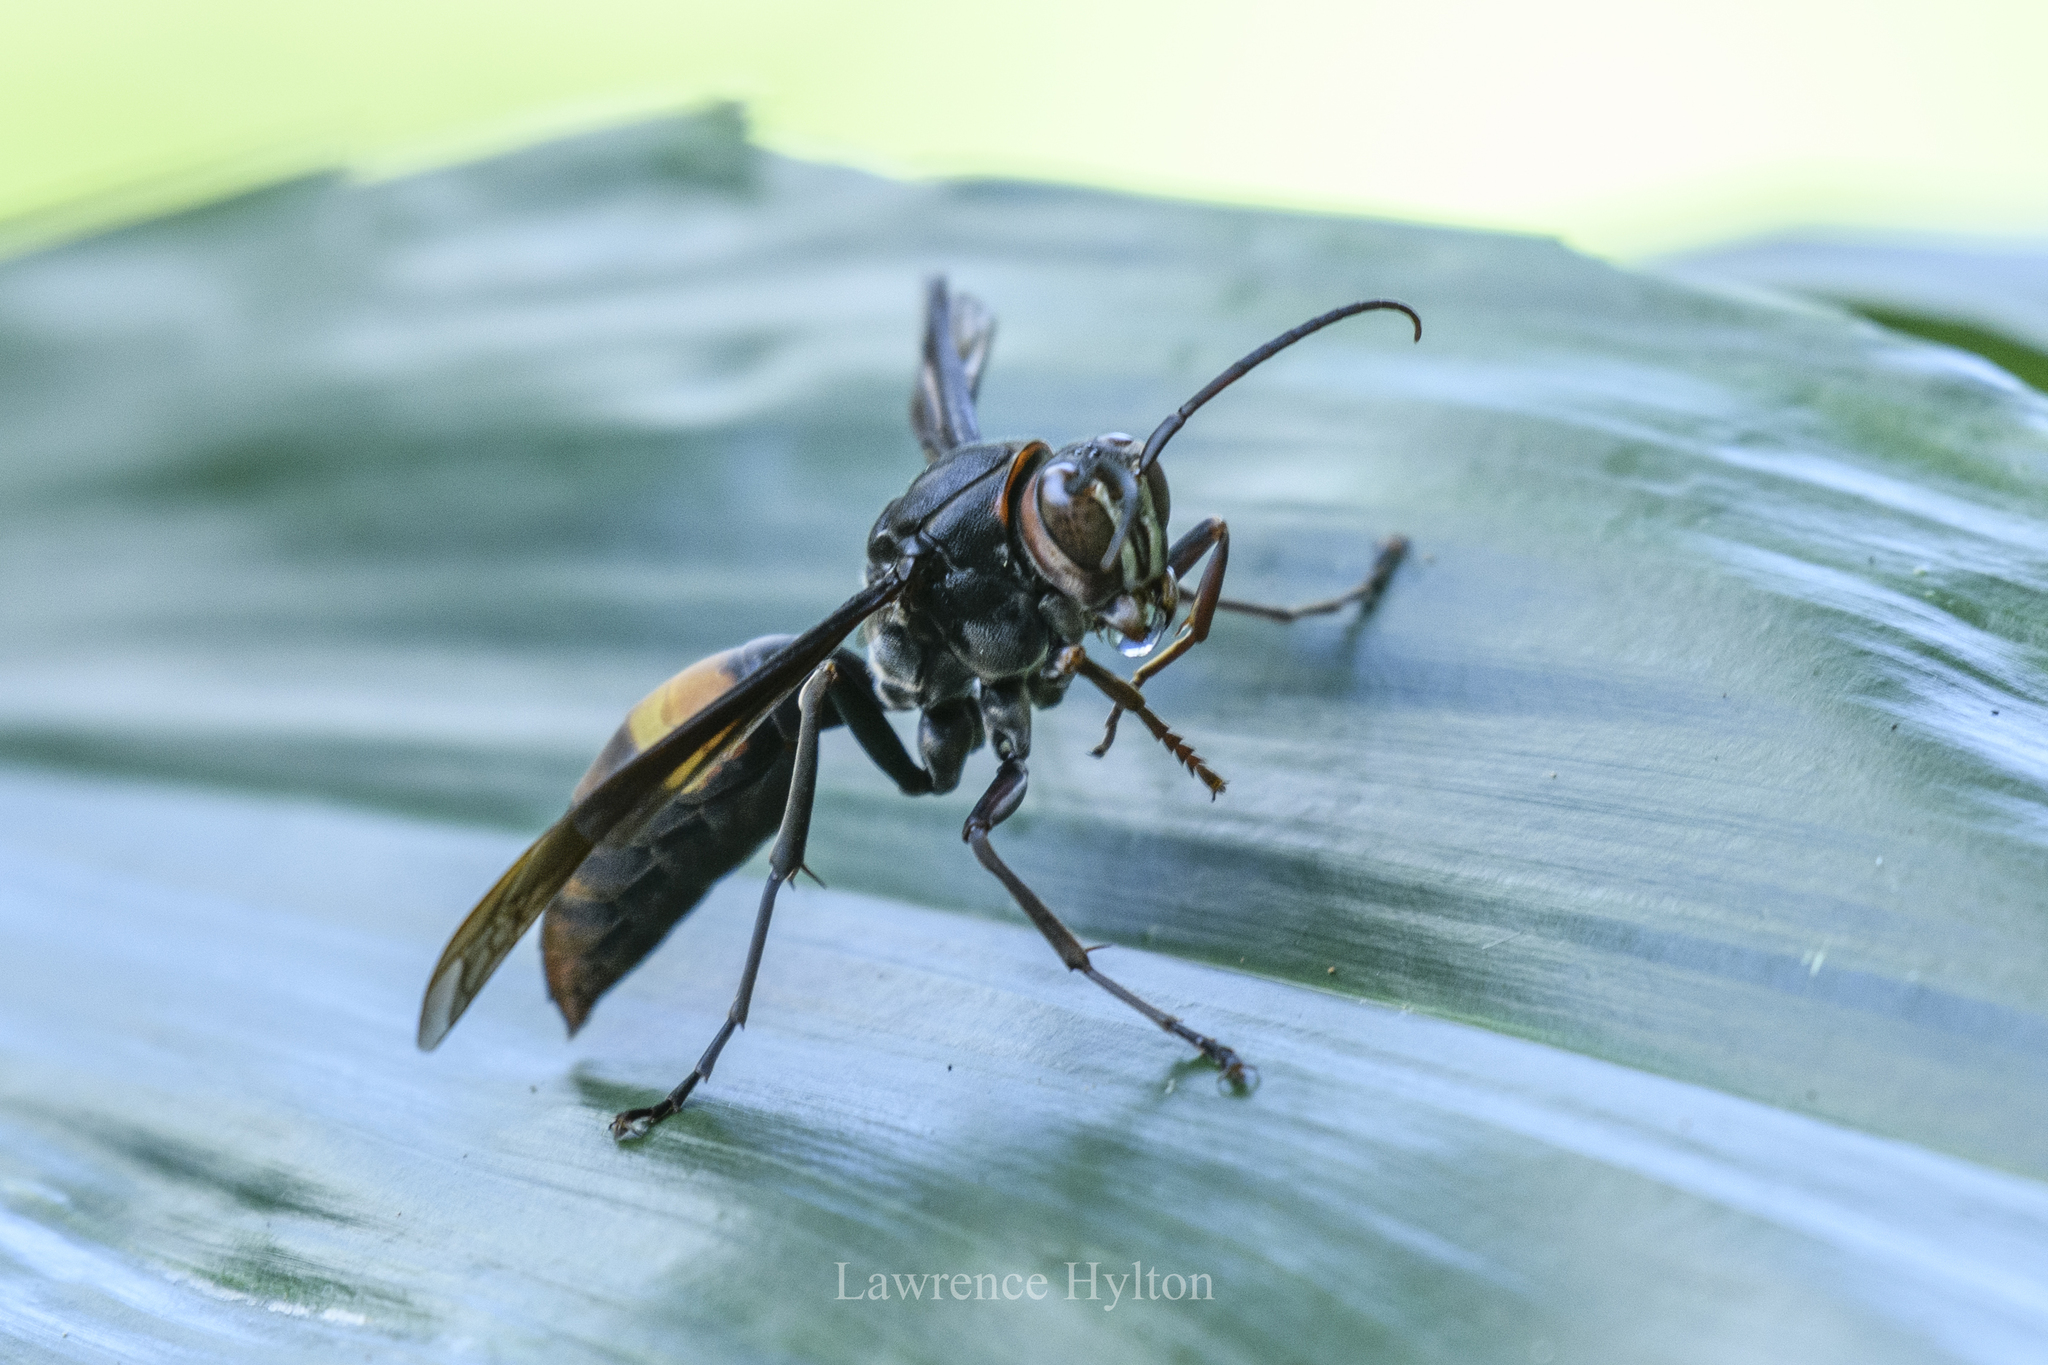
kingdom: Animalia
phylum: Arthropoda
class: Insecta
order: Hymenoptera
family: Eumenidae
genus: Polistes
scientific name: Polistes tenebricosus
